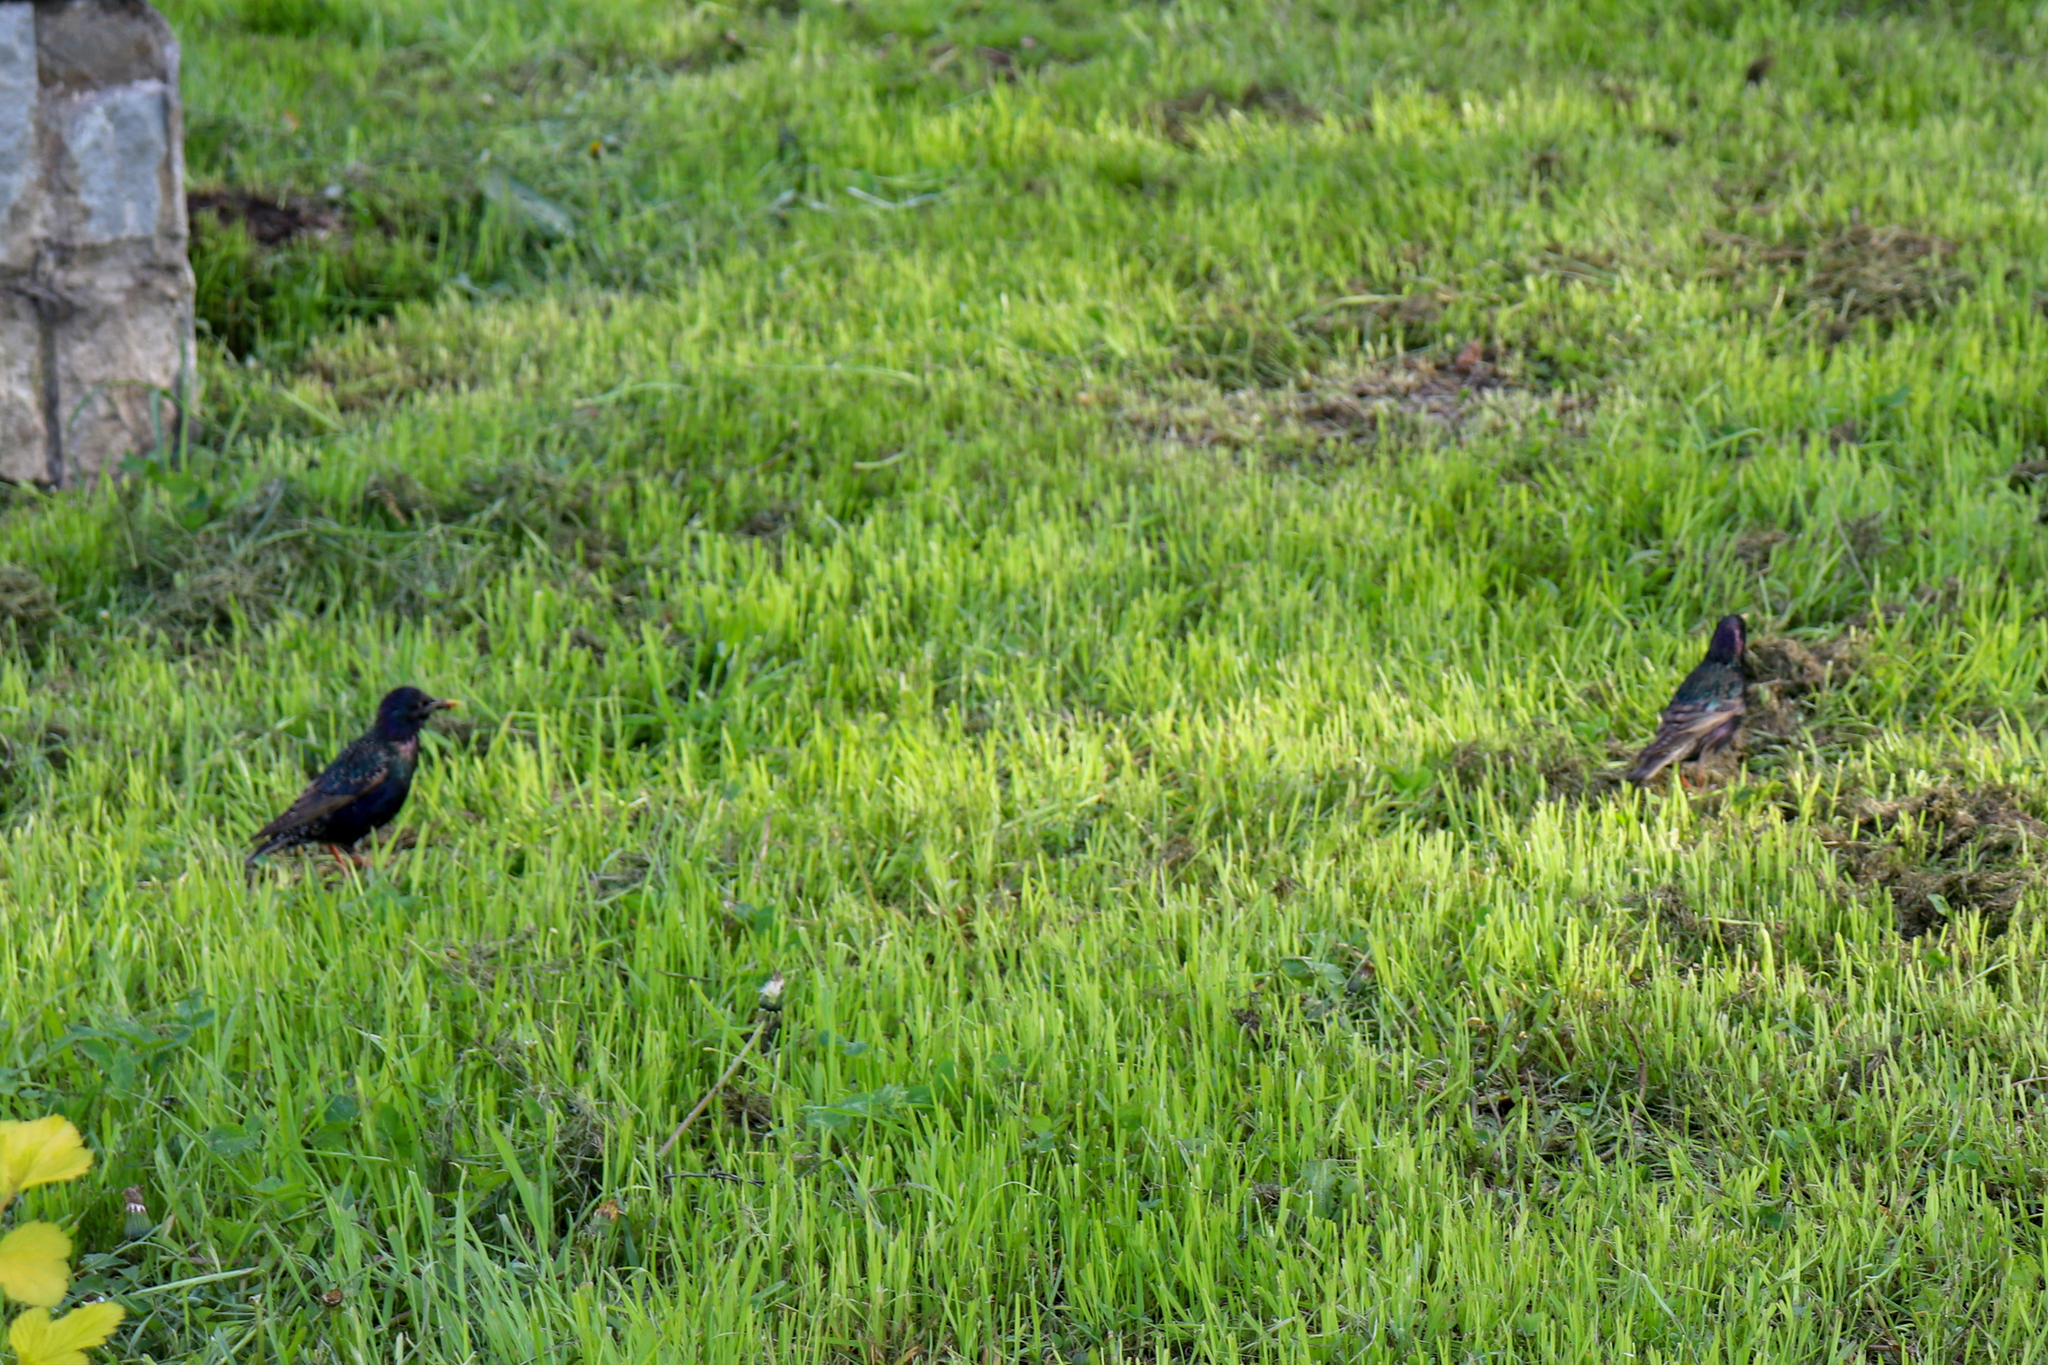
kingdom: Animalia
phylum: Chordata
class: Aves
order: Passeriformes
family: Sturnidae
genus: Sturnus
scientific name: Sturnus vulgaris
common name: Common starling
